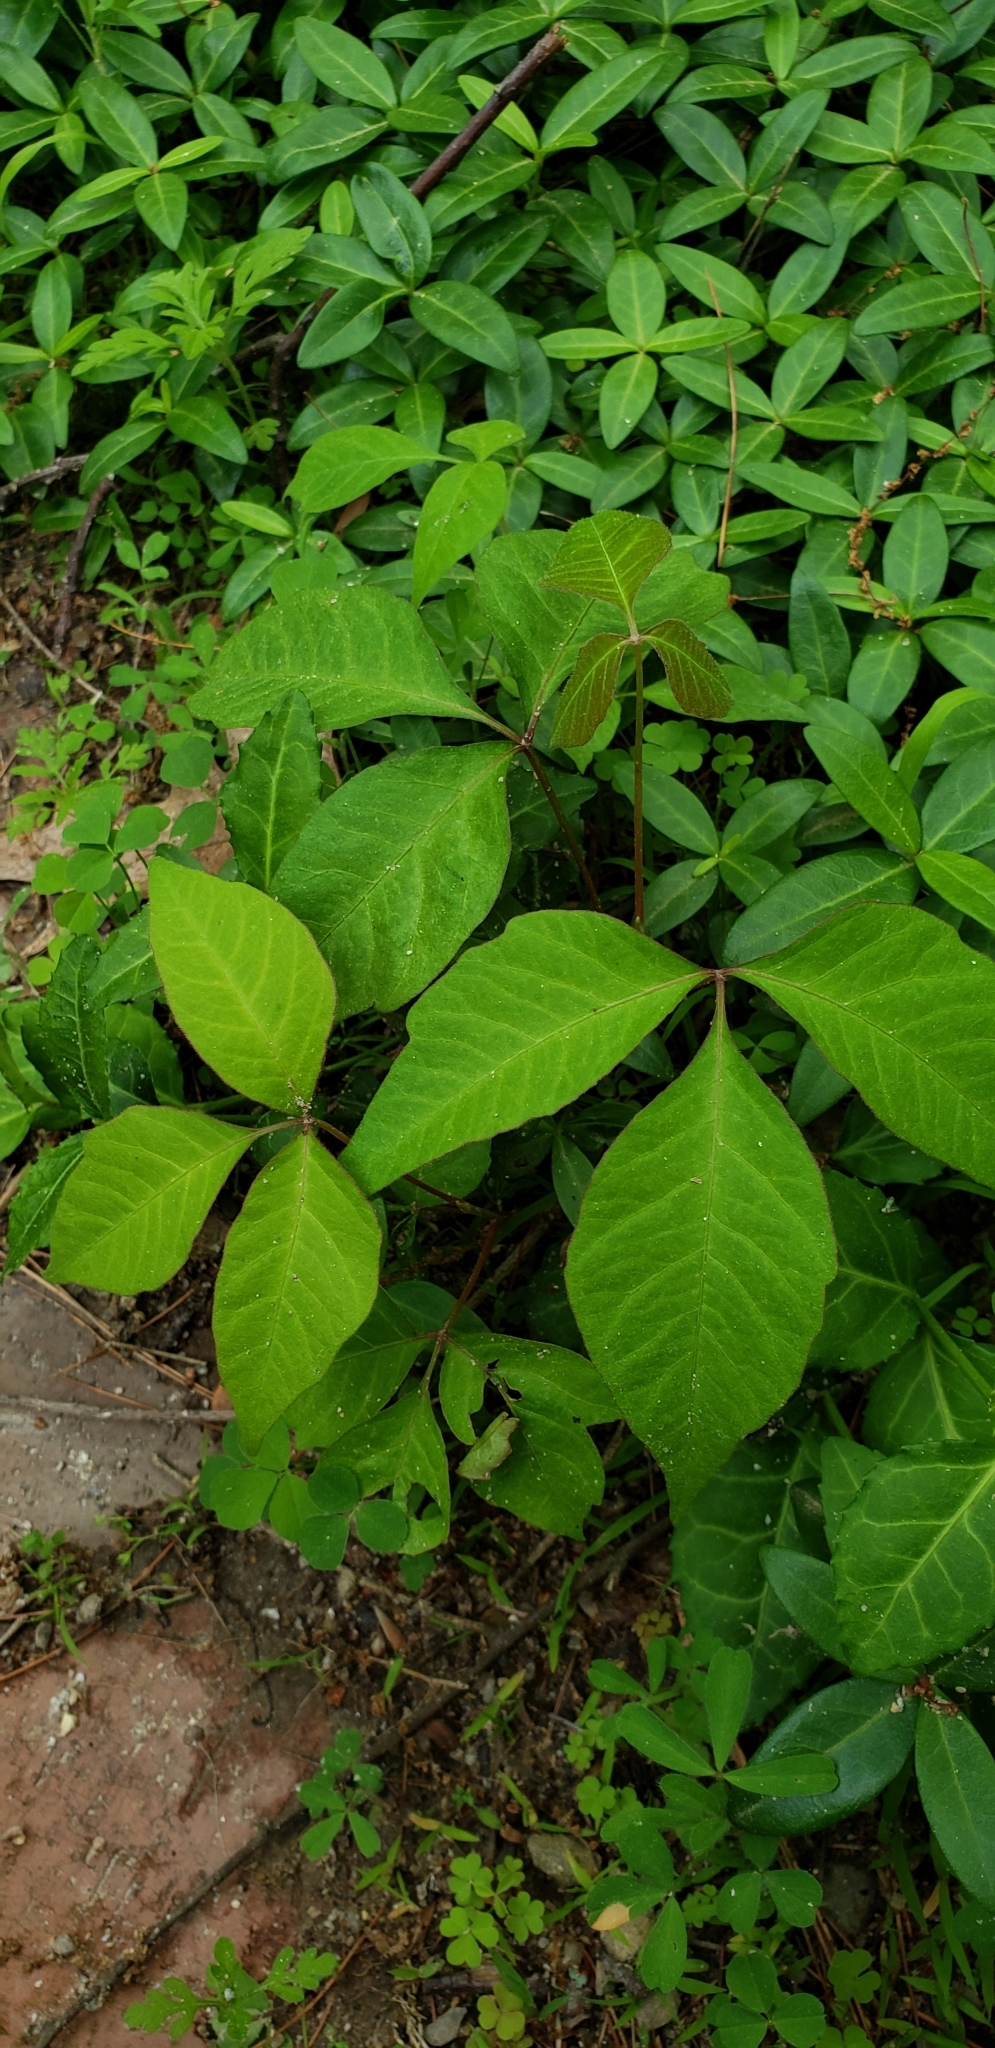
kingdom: Plantae
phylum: Tracheophyta
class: Magnoliopsida
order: Sapindales
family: Anacardiaceae
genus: Toxicodendron
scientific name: Toxicodendron radicans
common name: Poison ivy
